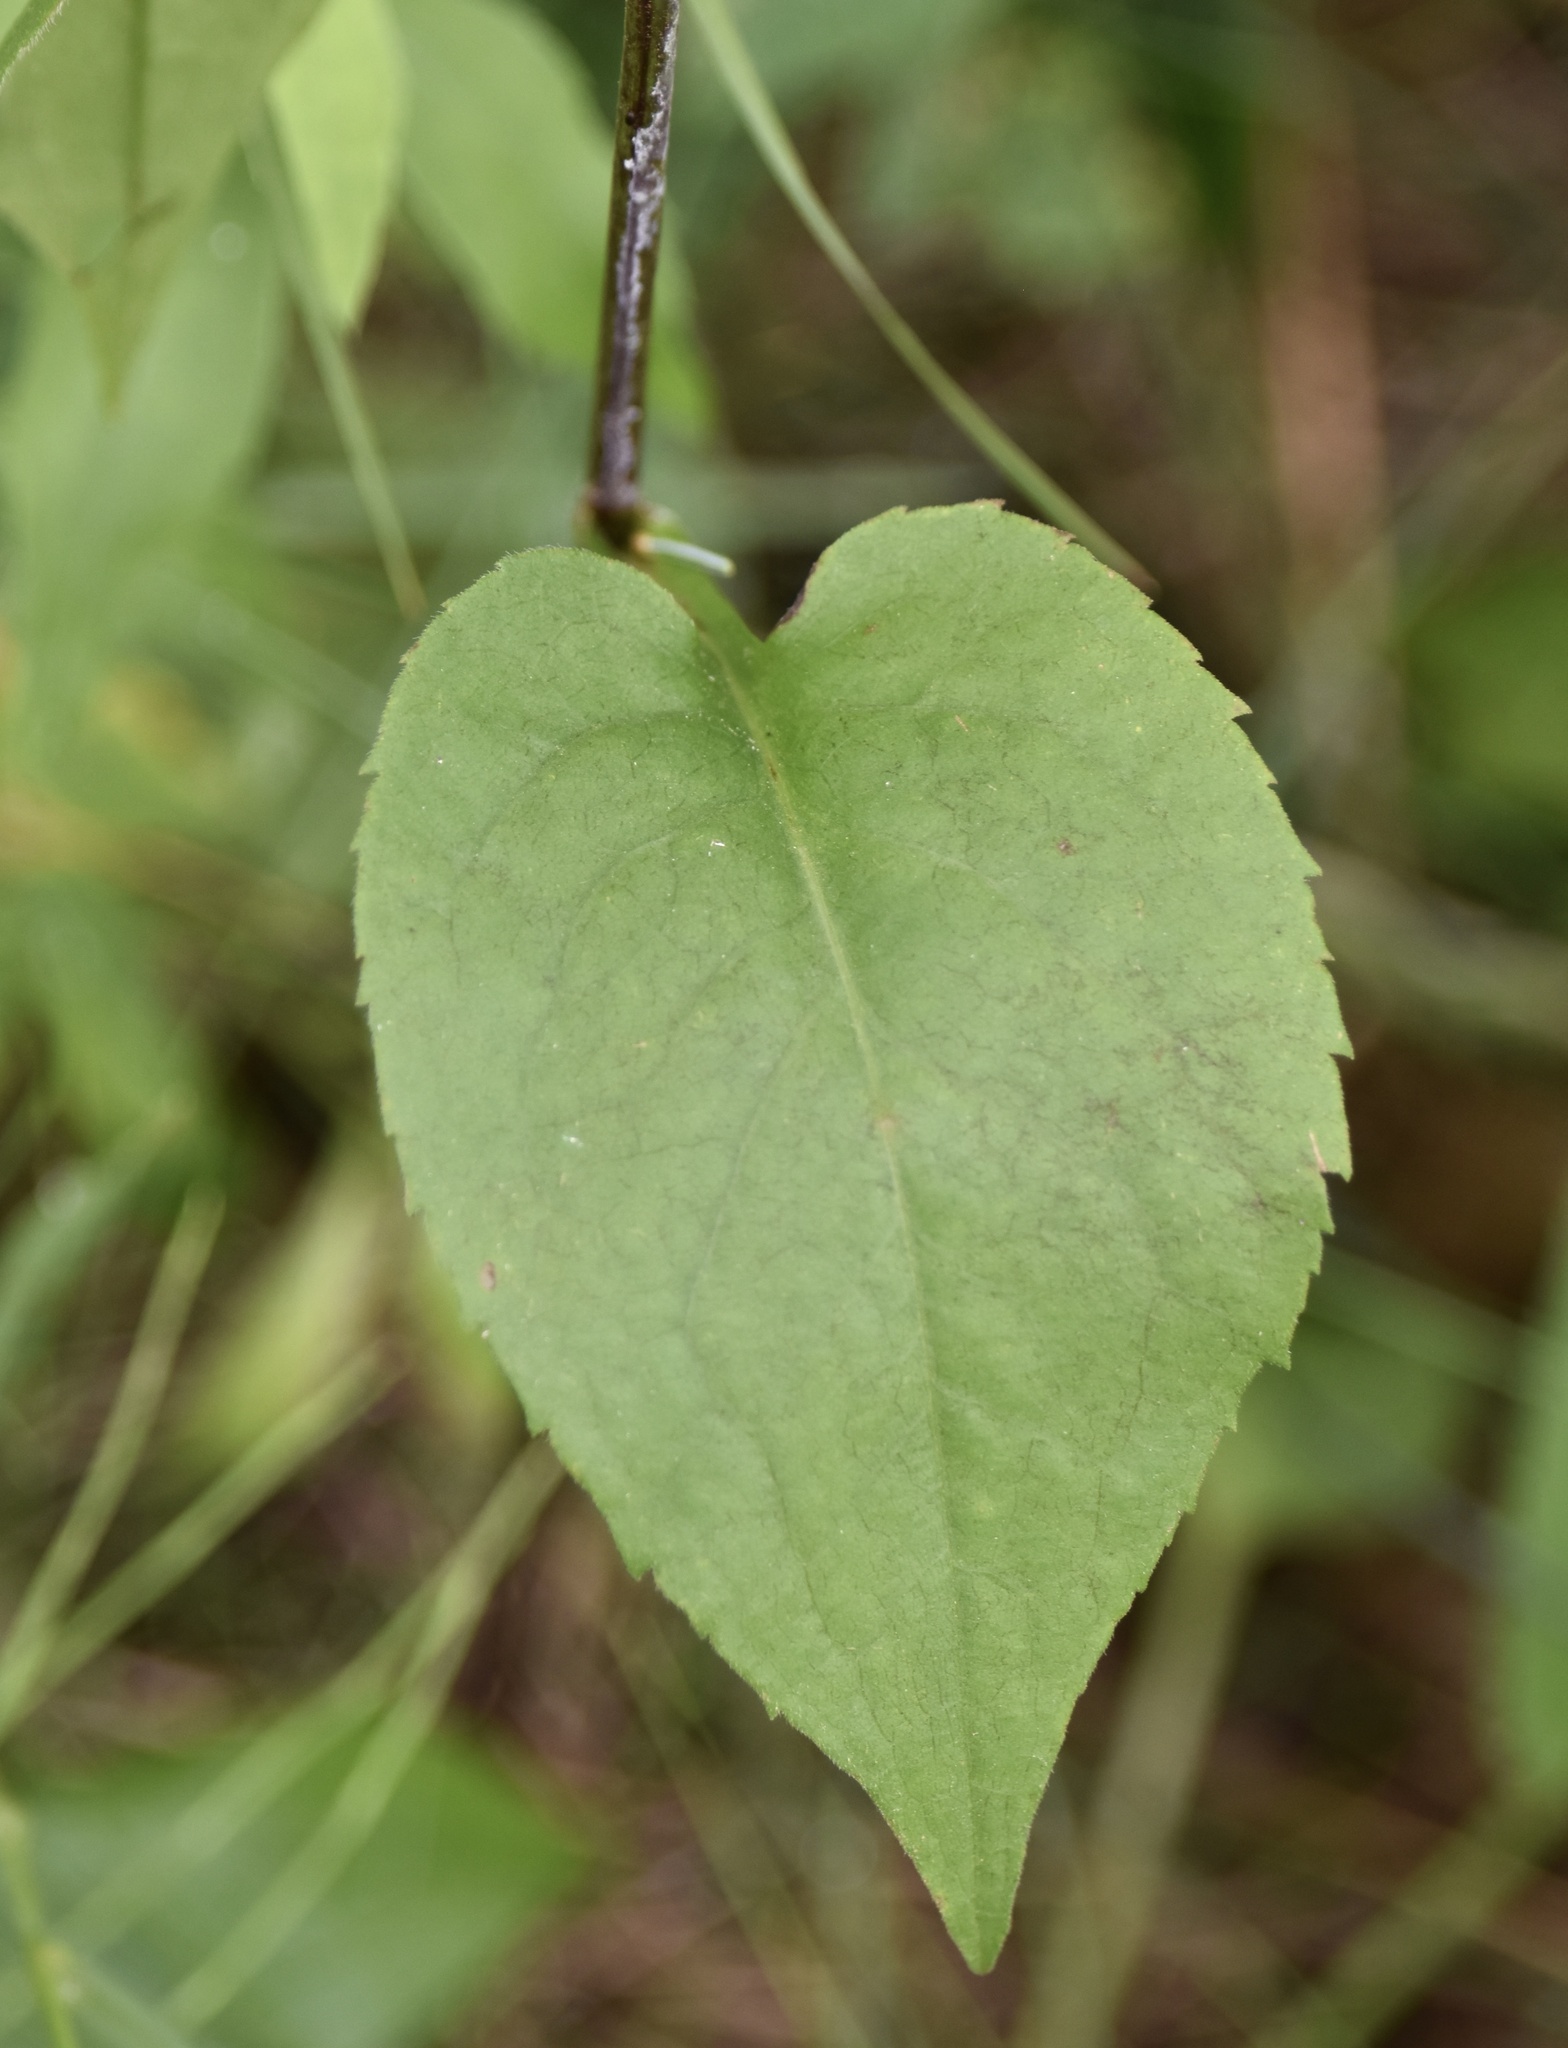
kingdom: Plantae
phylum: Tracheophyta
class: Magnoliopsida
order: Asterales
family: Asteraceae
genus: Symphyotrichum
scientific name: Symphyotrichum ciliolatum
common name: Fringed blue aster
